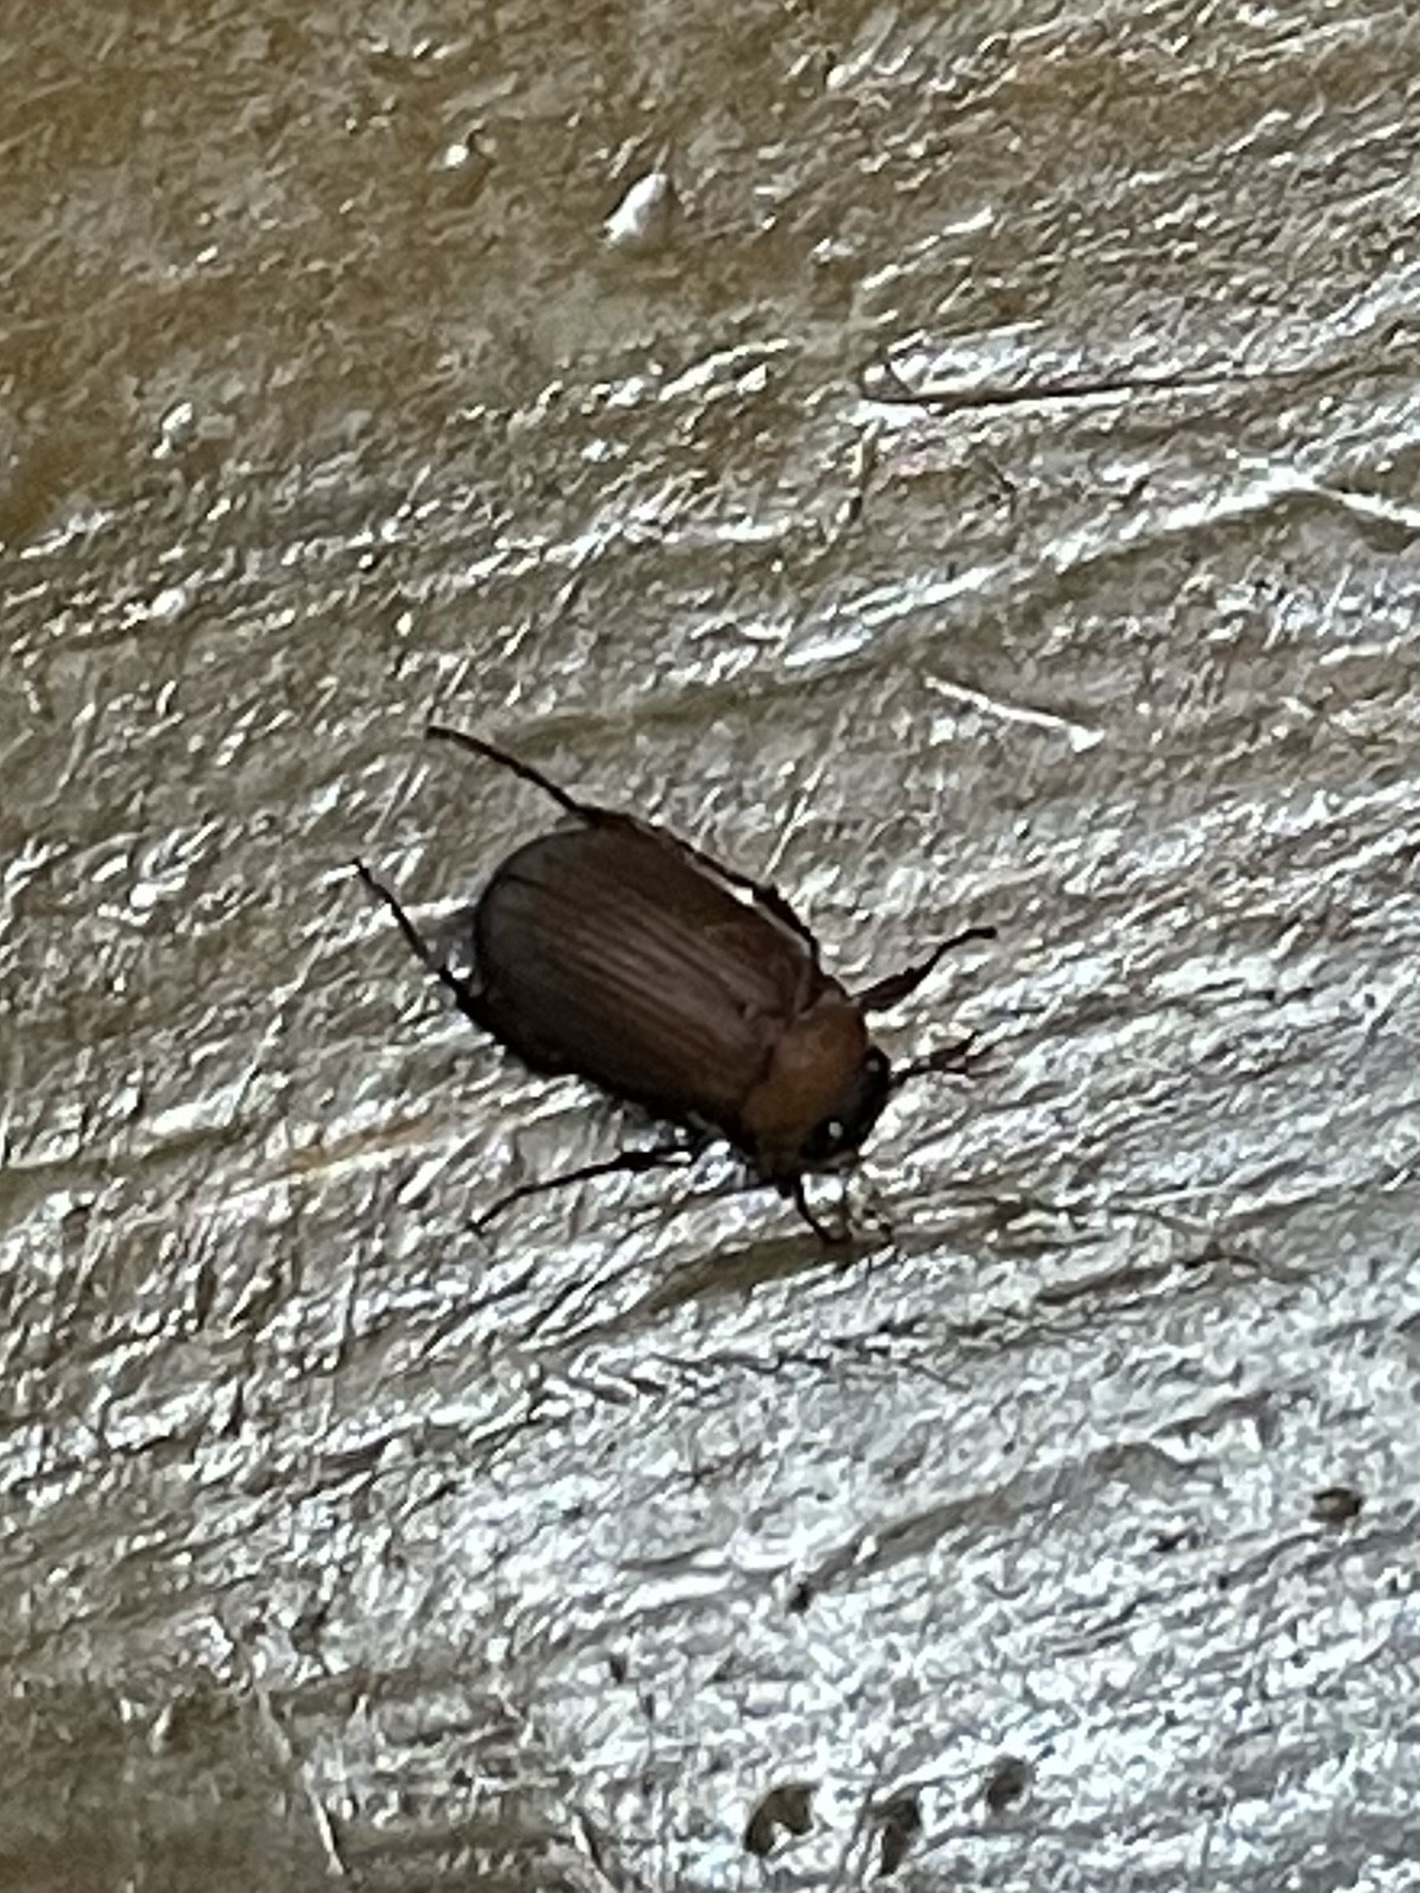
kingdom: Animalia
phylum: Arthropoda
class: Insecta
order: Coleoptera
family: Scarabaeidae
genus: Serica
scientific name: Serica brunnea
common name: Brown chafer
